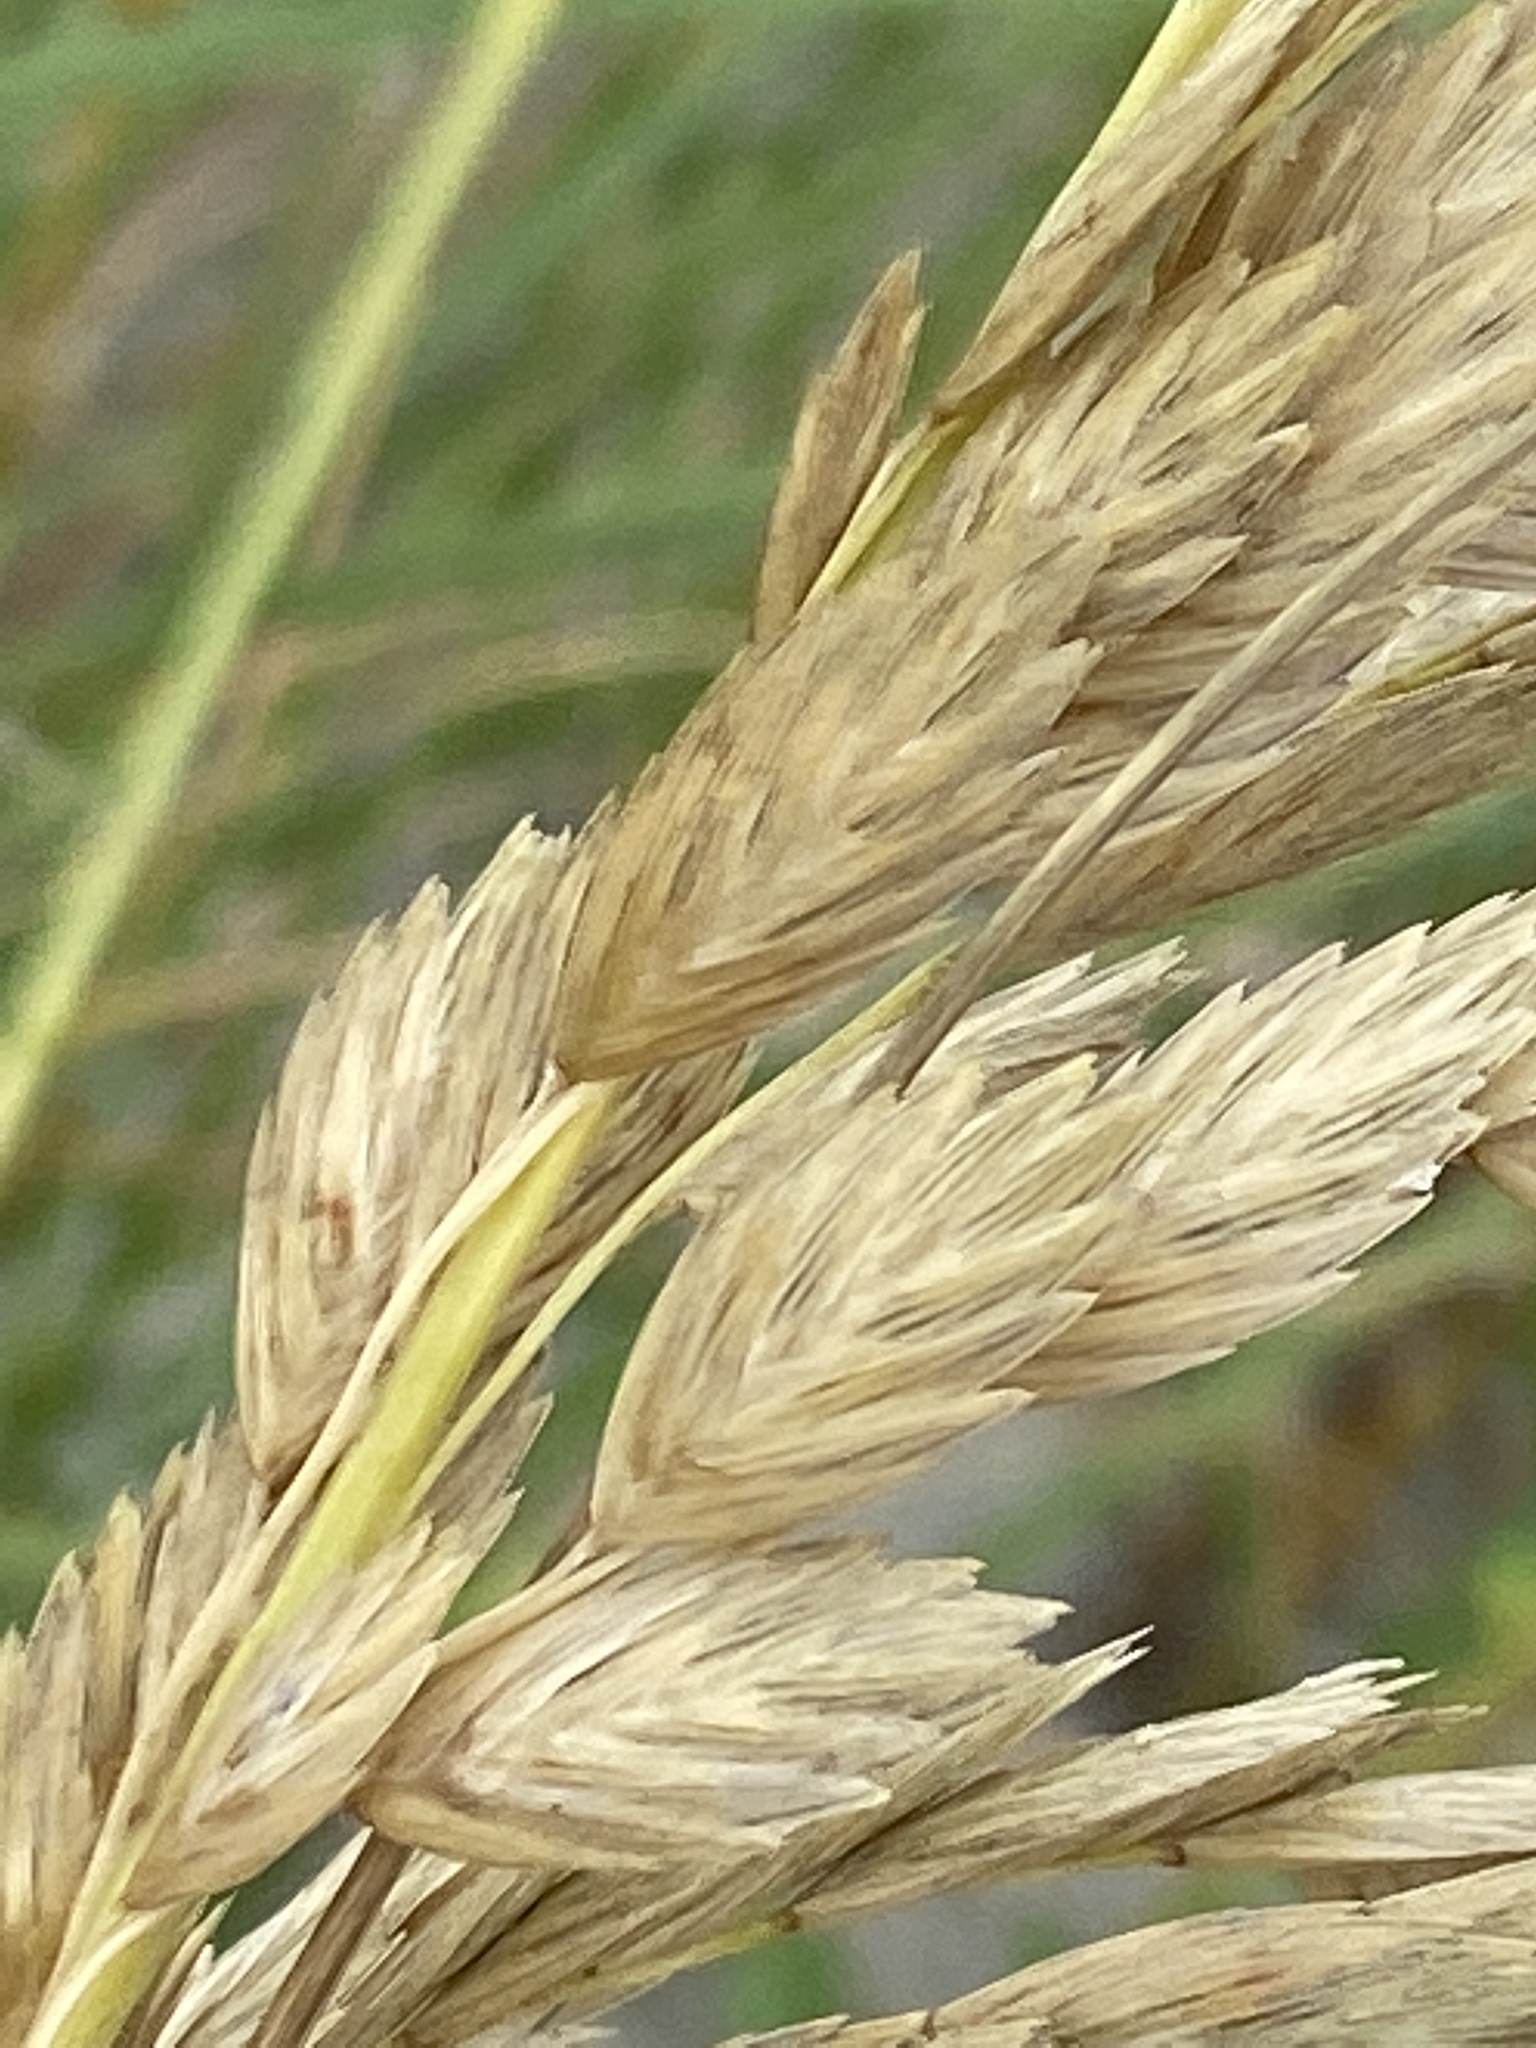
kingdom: Plantae
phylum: Tracheophyta
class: Liliopsida
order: Poales
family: Poaceae
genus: Uniola
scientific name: Uniola paniculata
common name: Seaside-oats
